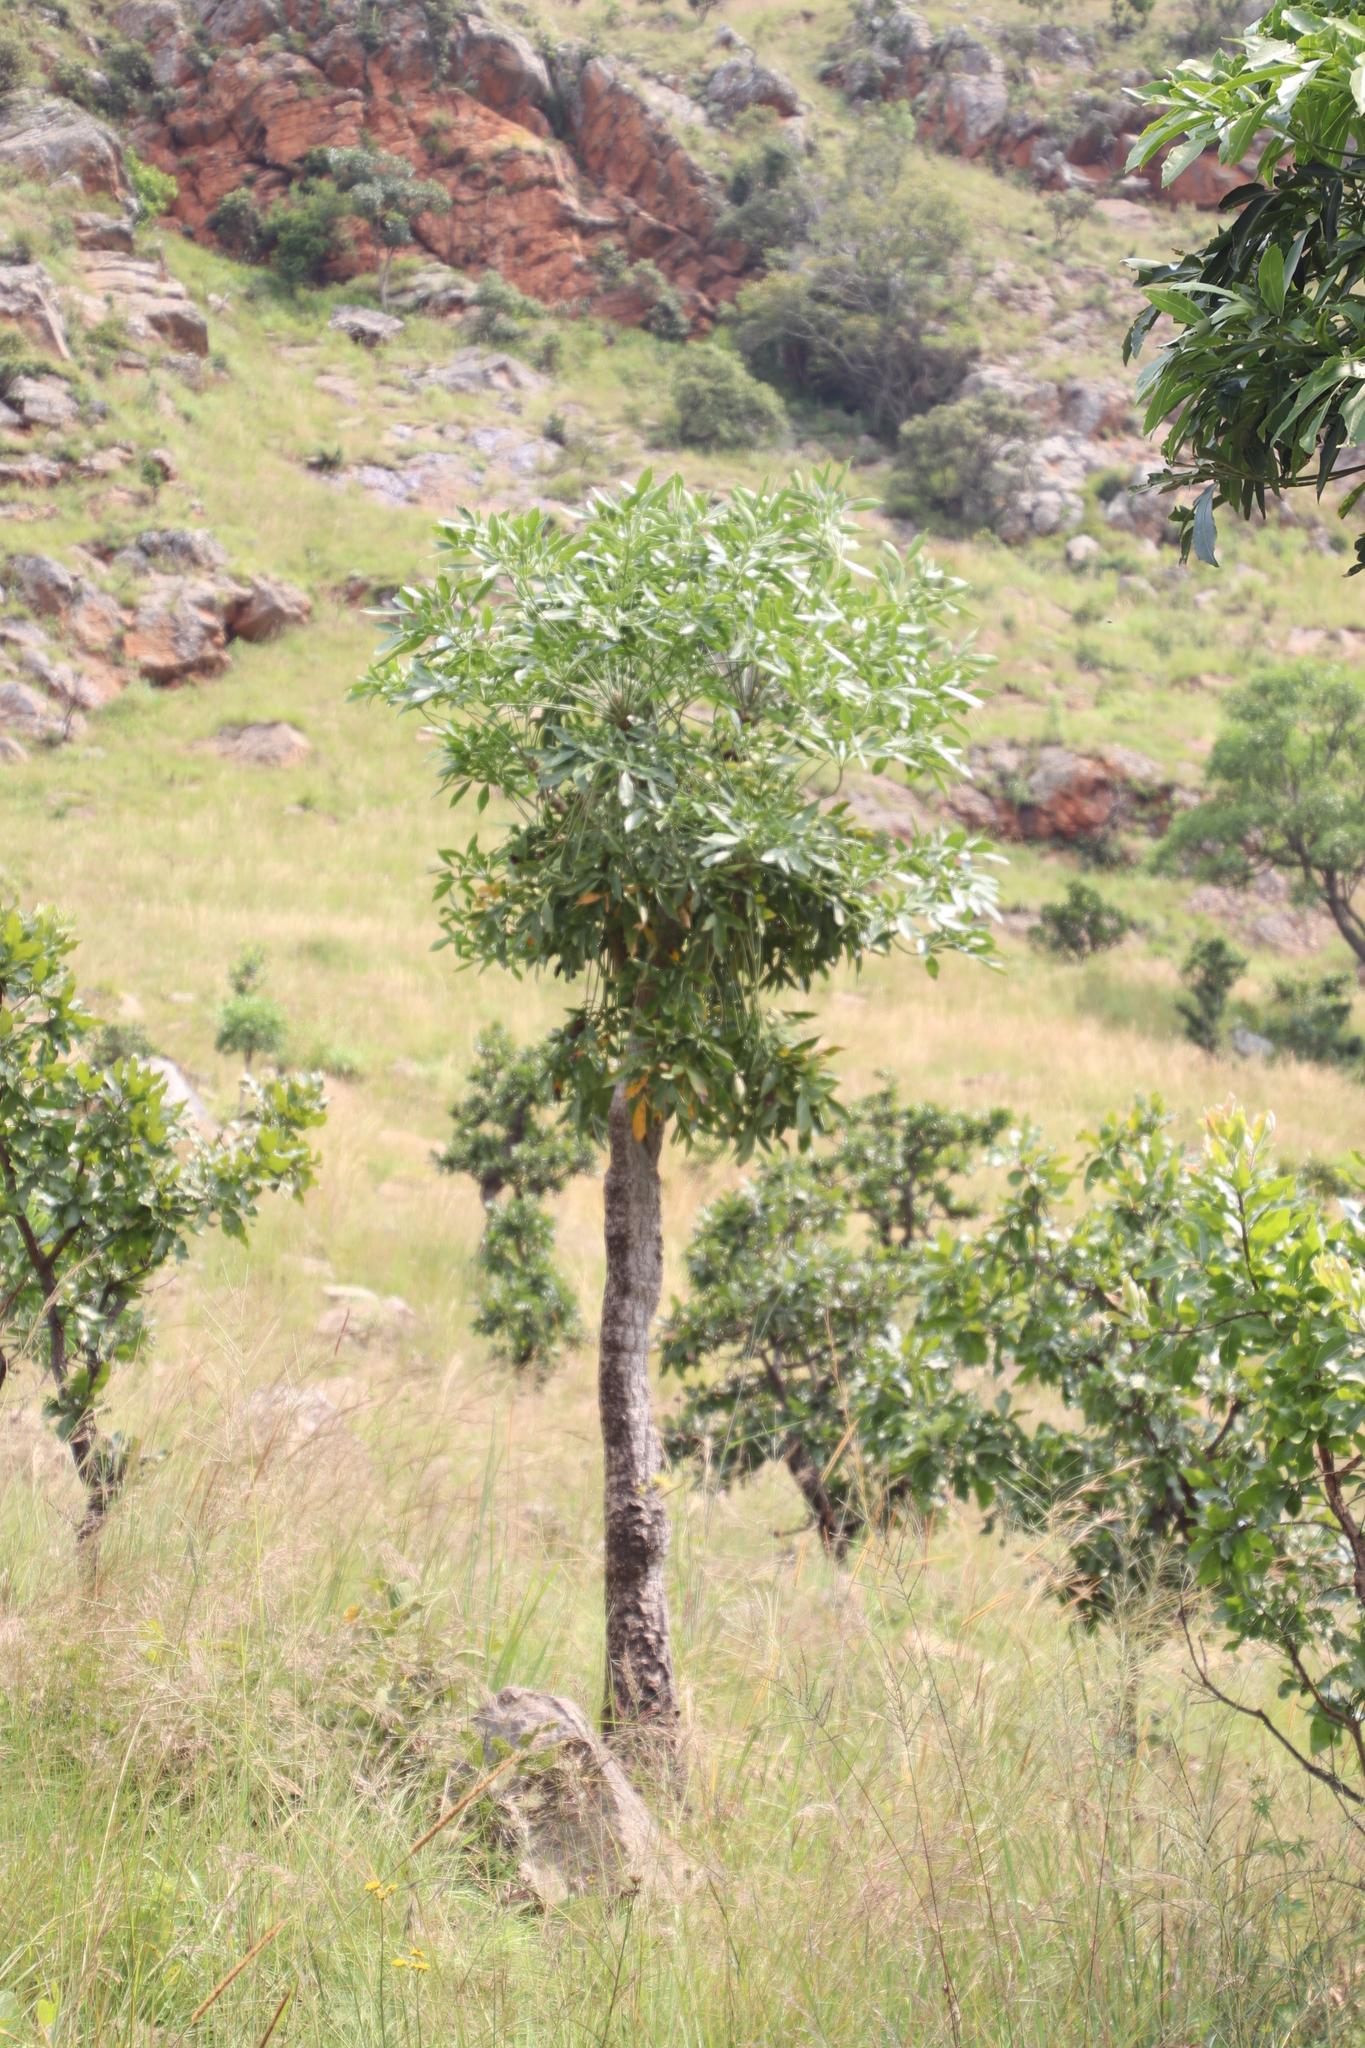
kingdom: Plantae
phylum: Tracheophyta
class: Magnoliopsida
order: Apiales
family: Araliaceae
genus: Cussonia
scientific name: Cussonia spicata
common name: Common cabbagetree
